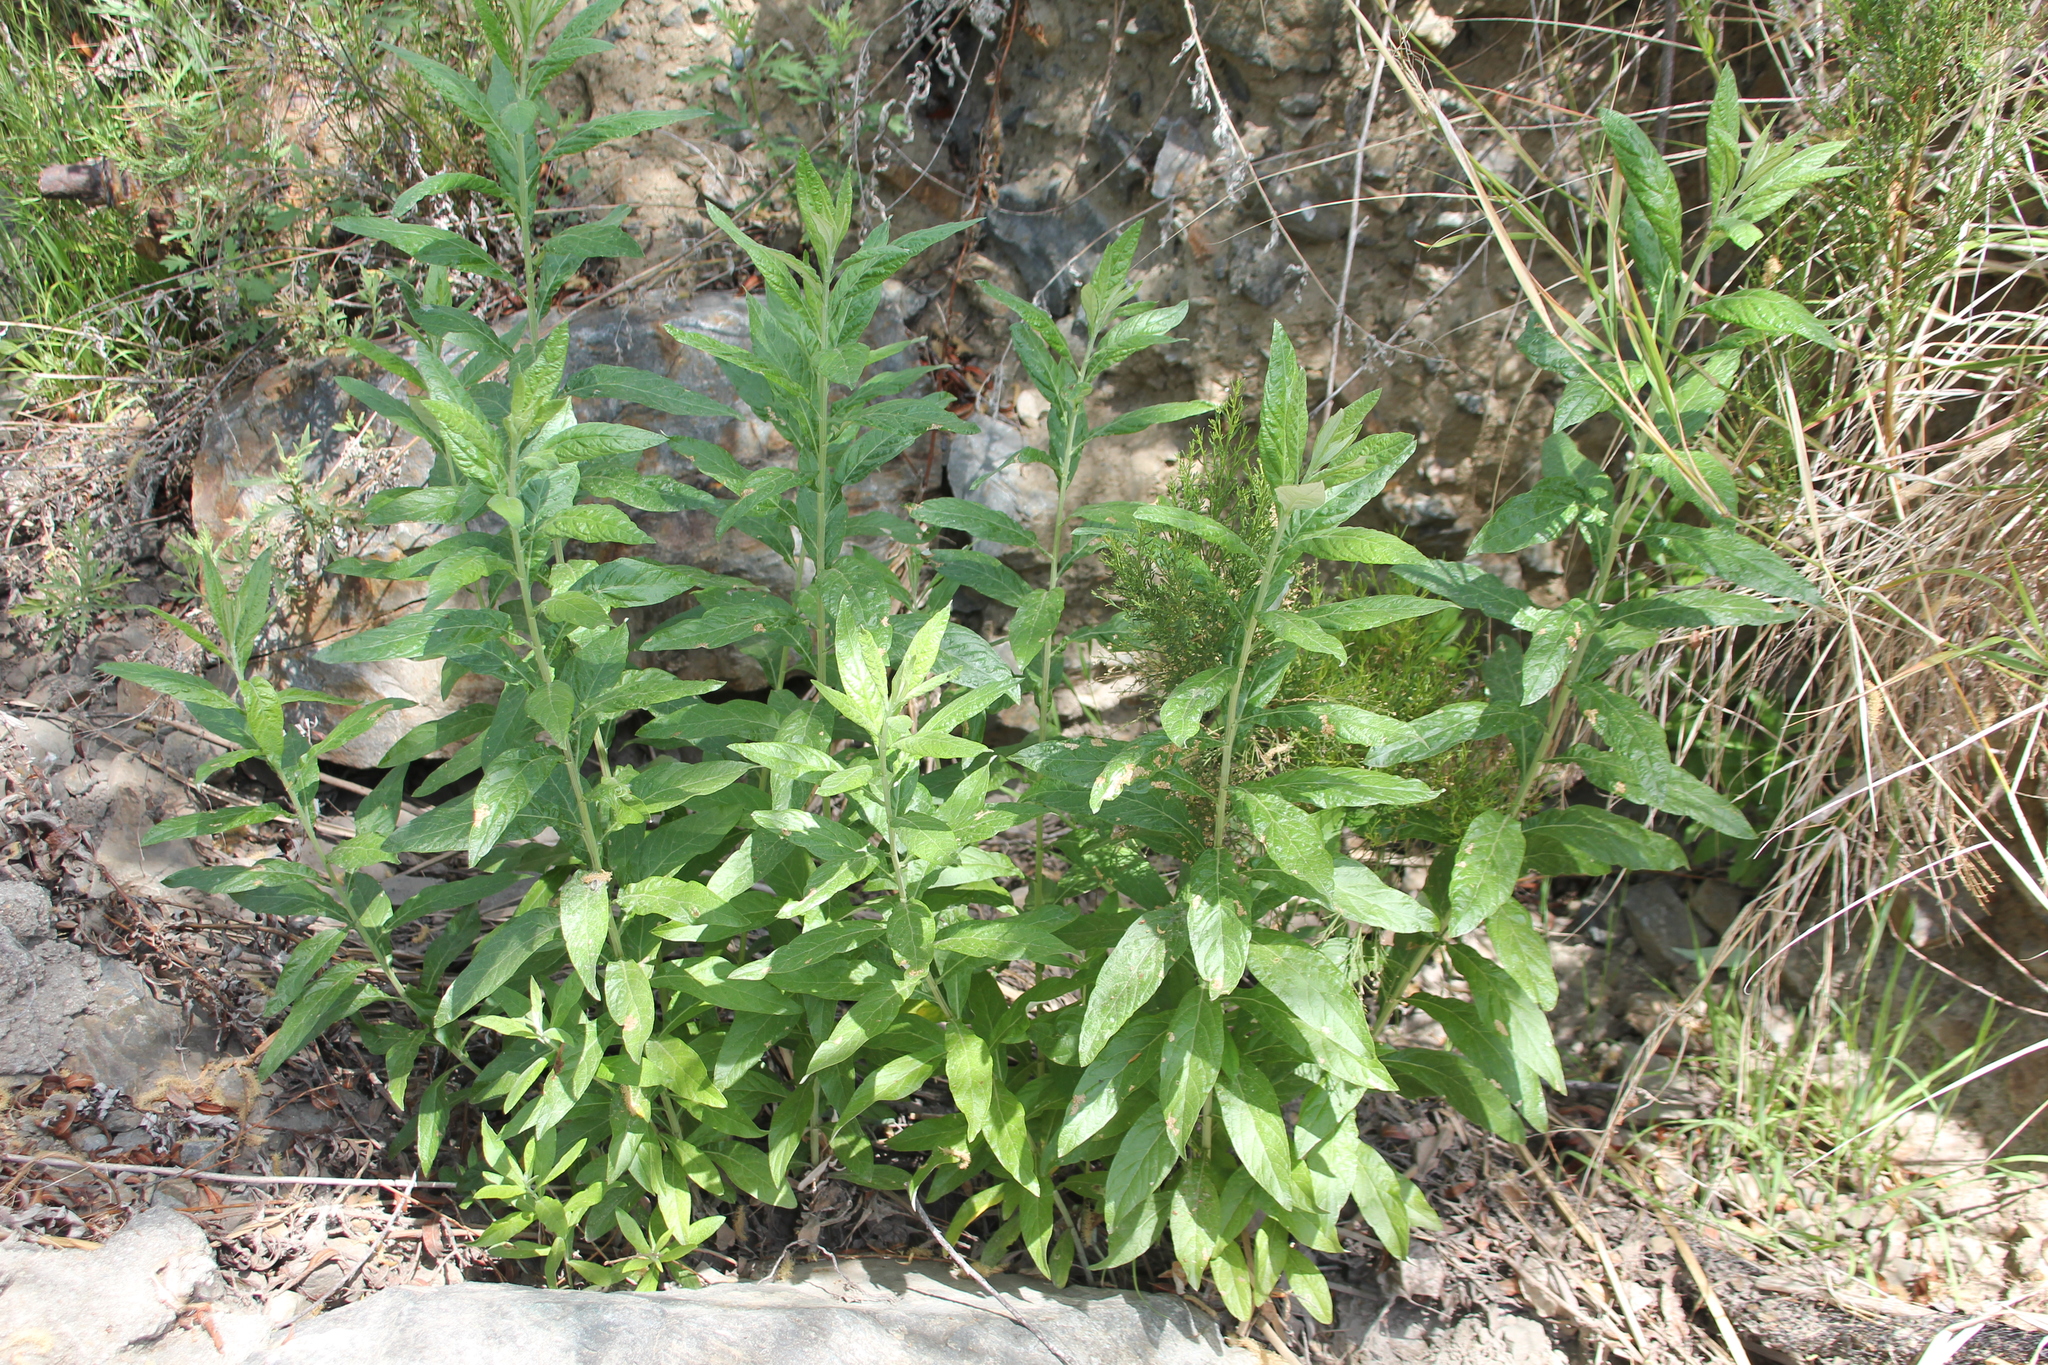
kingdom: Plantae
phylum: Tracheophyta
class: Magnoliopsida
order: Asterales
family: Asteraceae
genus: Artemisia
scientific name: Artemisia douglasiana
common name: Northwest mugwort
